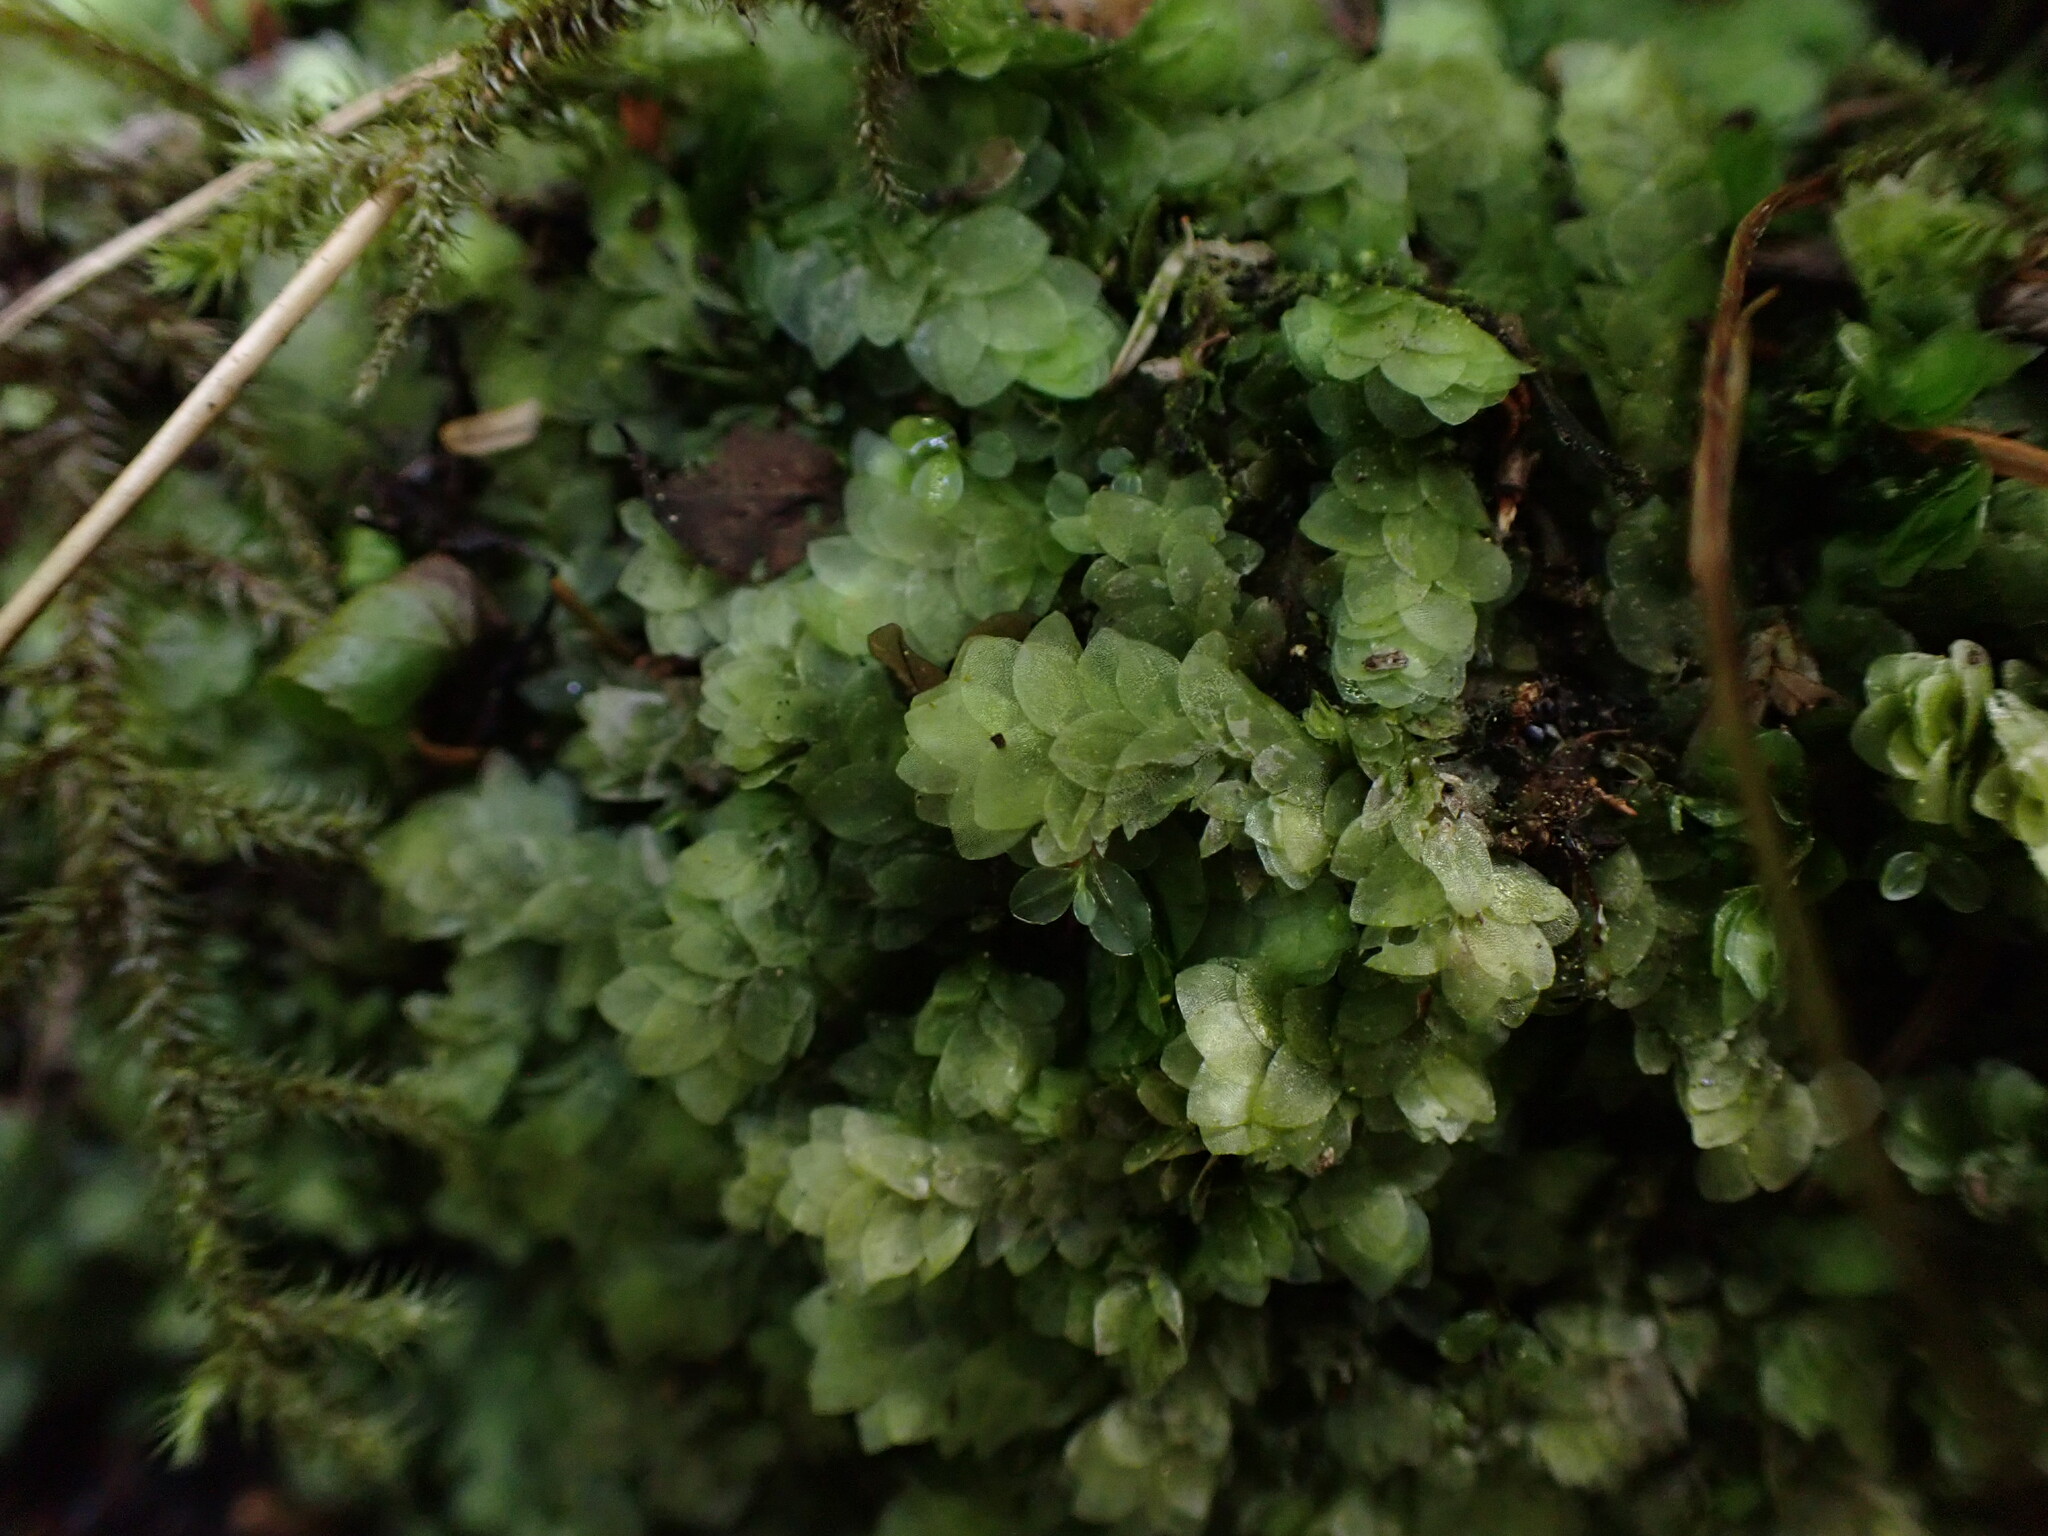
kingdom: Plantae
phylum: Bryophyta
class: Bryopsida
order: Hookeriales
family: Hookeriaceae
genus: Hookeria
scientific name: Hookeria lucens
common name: Shining hookeria
